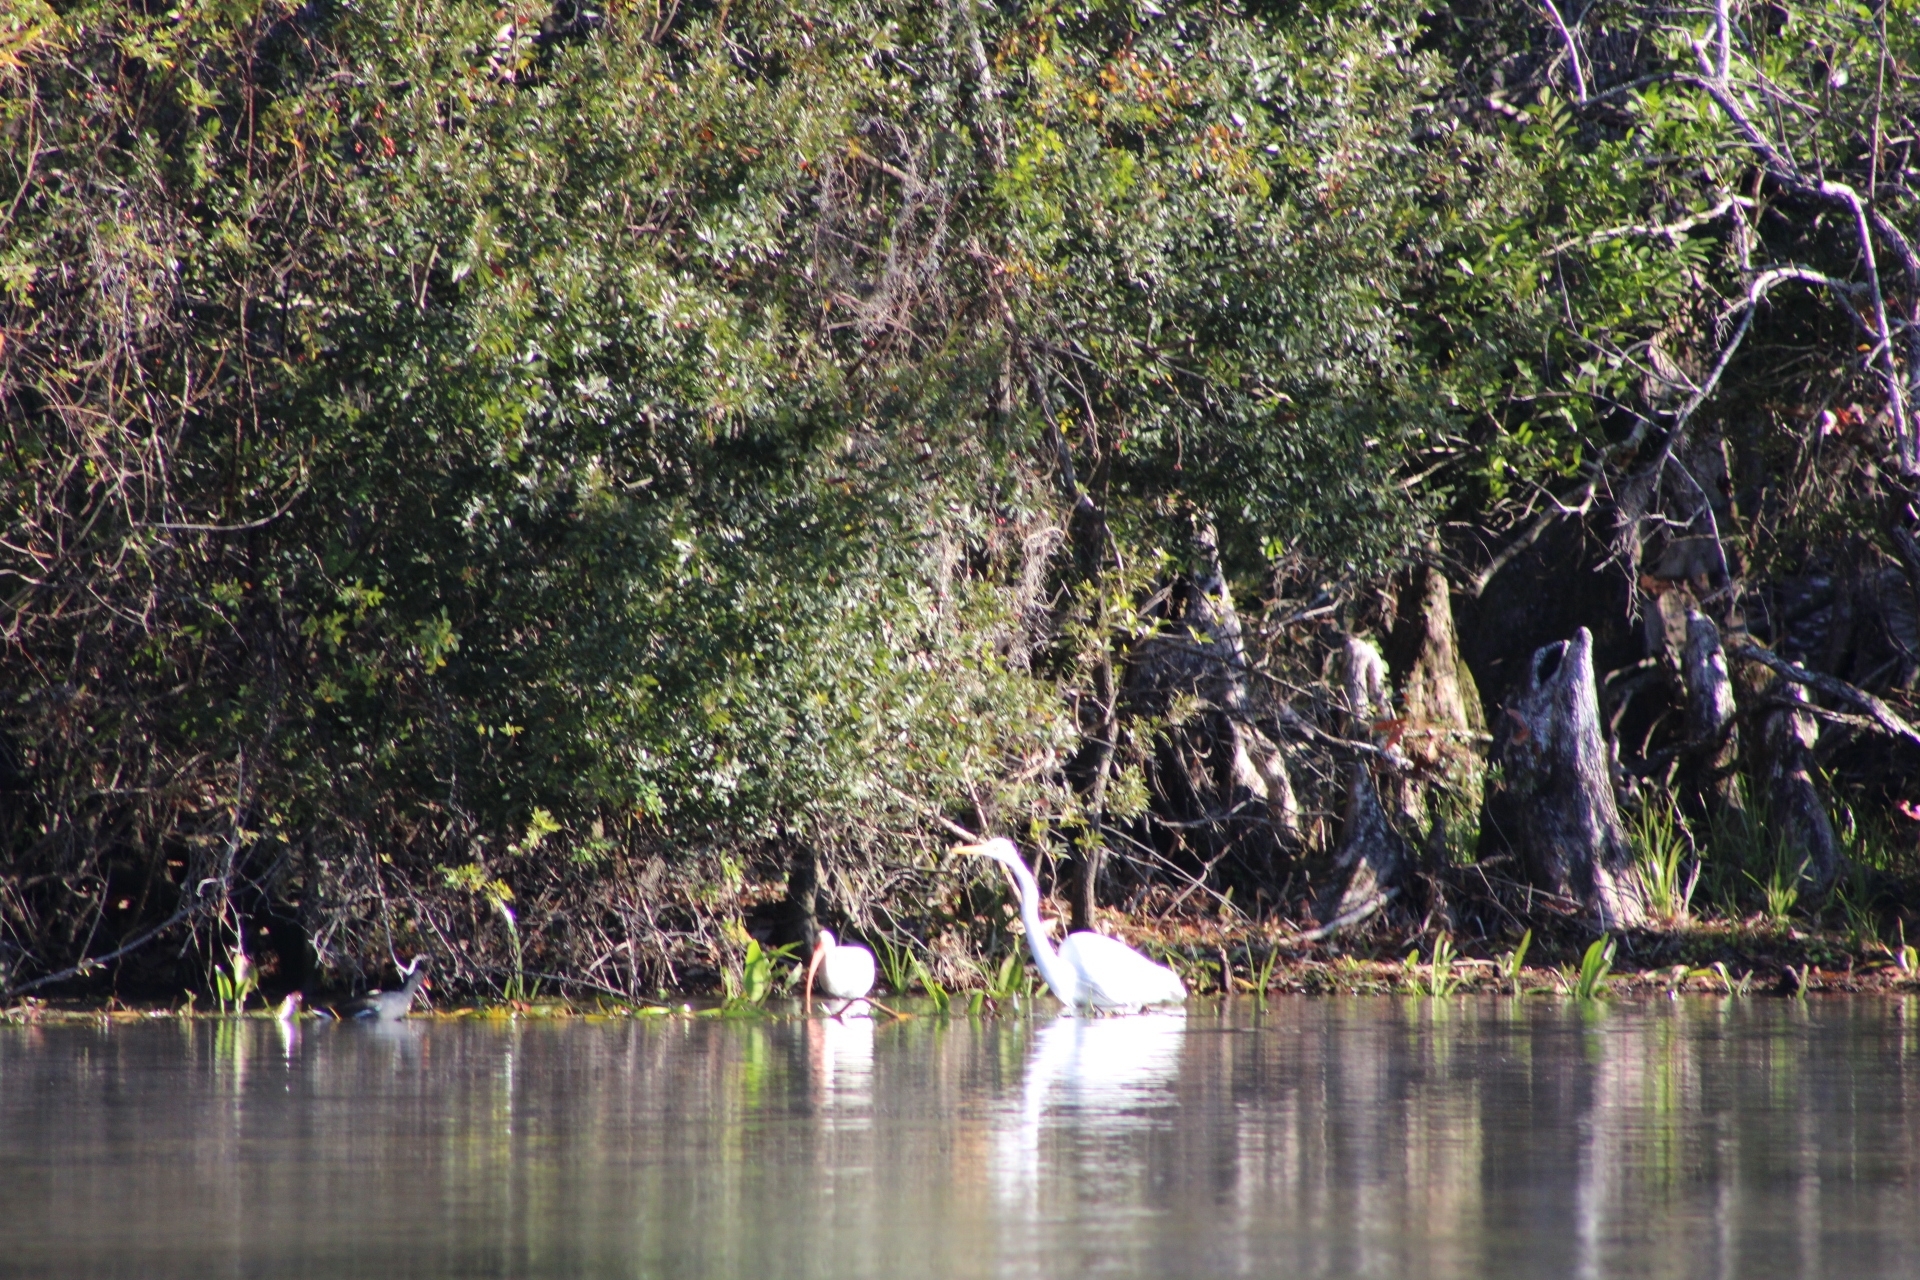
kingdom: Animalia
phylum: Chordata
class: Aves
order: Pelecaniformes
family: Ardeidae
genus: Ardea
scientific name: Ardea alba
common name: Great egret
